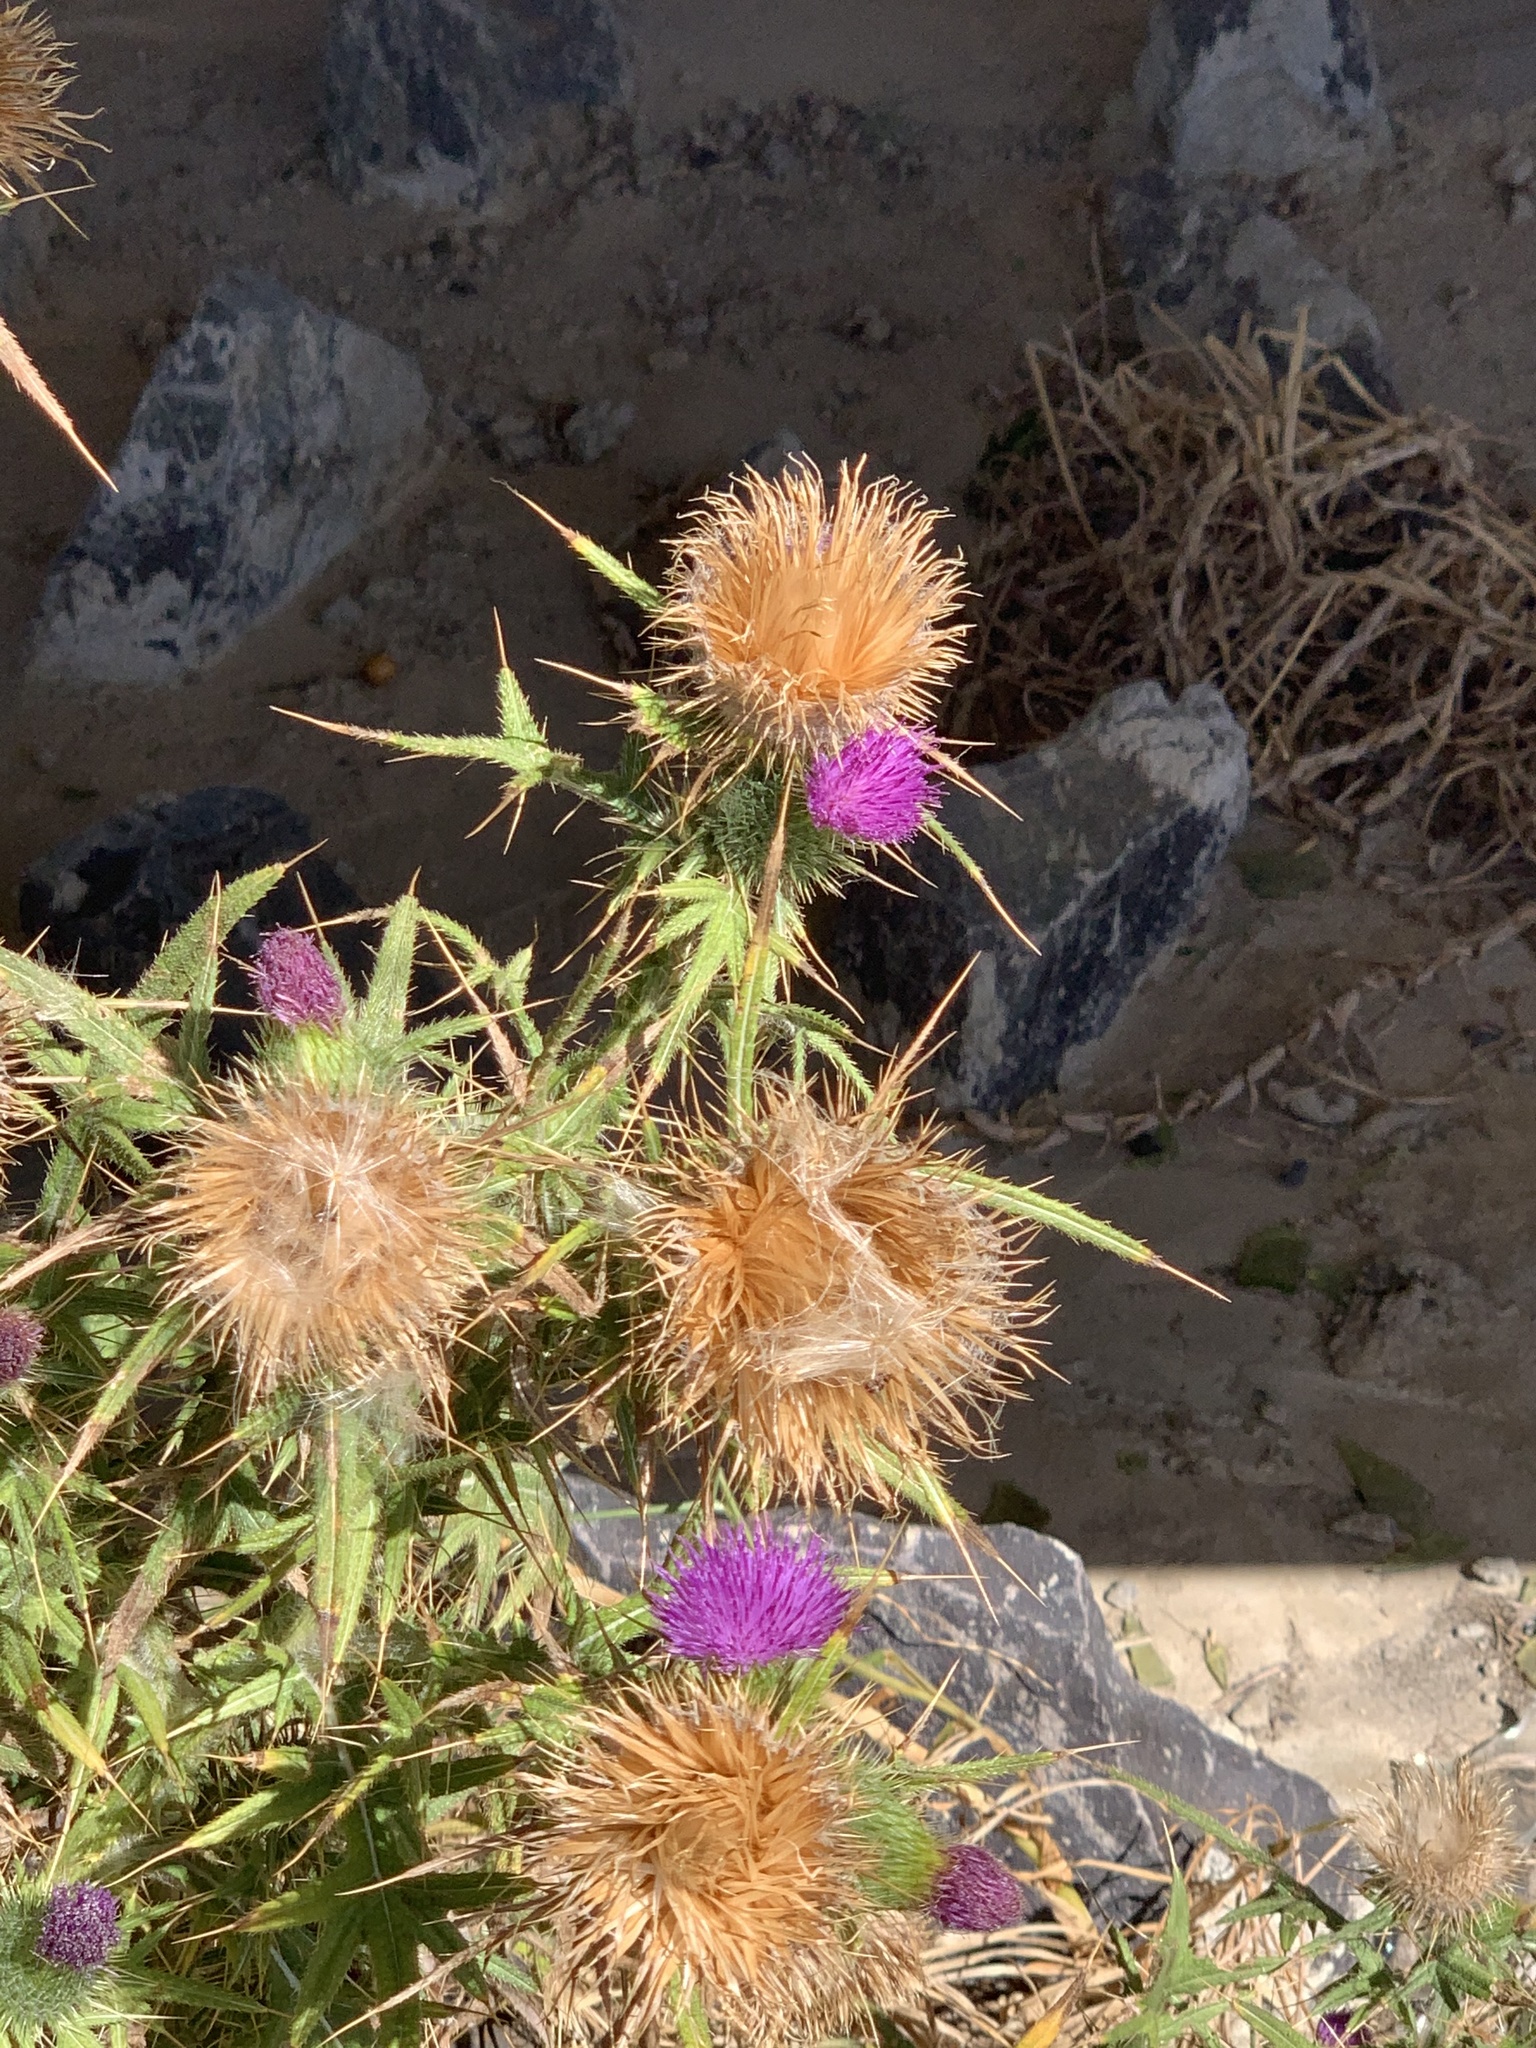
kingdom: Plantae
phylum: Tracheophyta
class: Magnoliopsida
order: Asterales
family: Asteraceae
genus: Cirsium
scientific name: Cirsium vulgare
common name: Bull thistle
